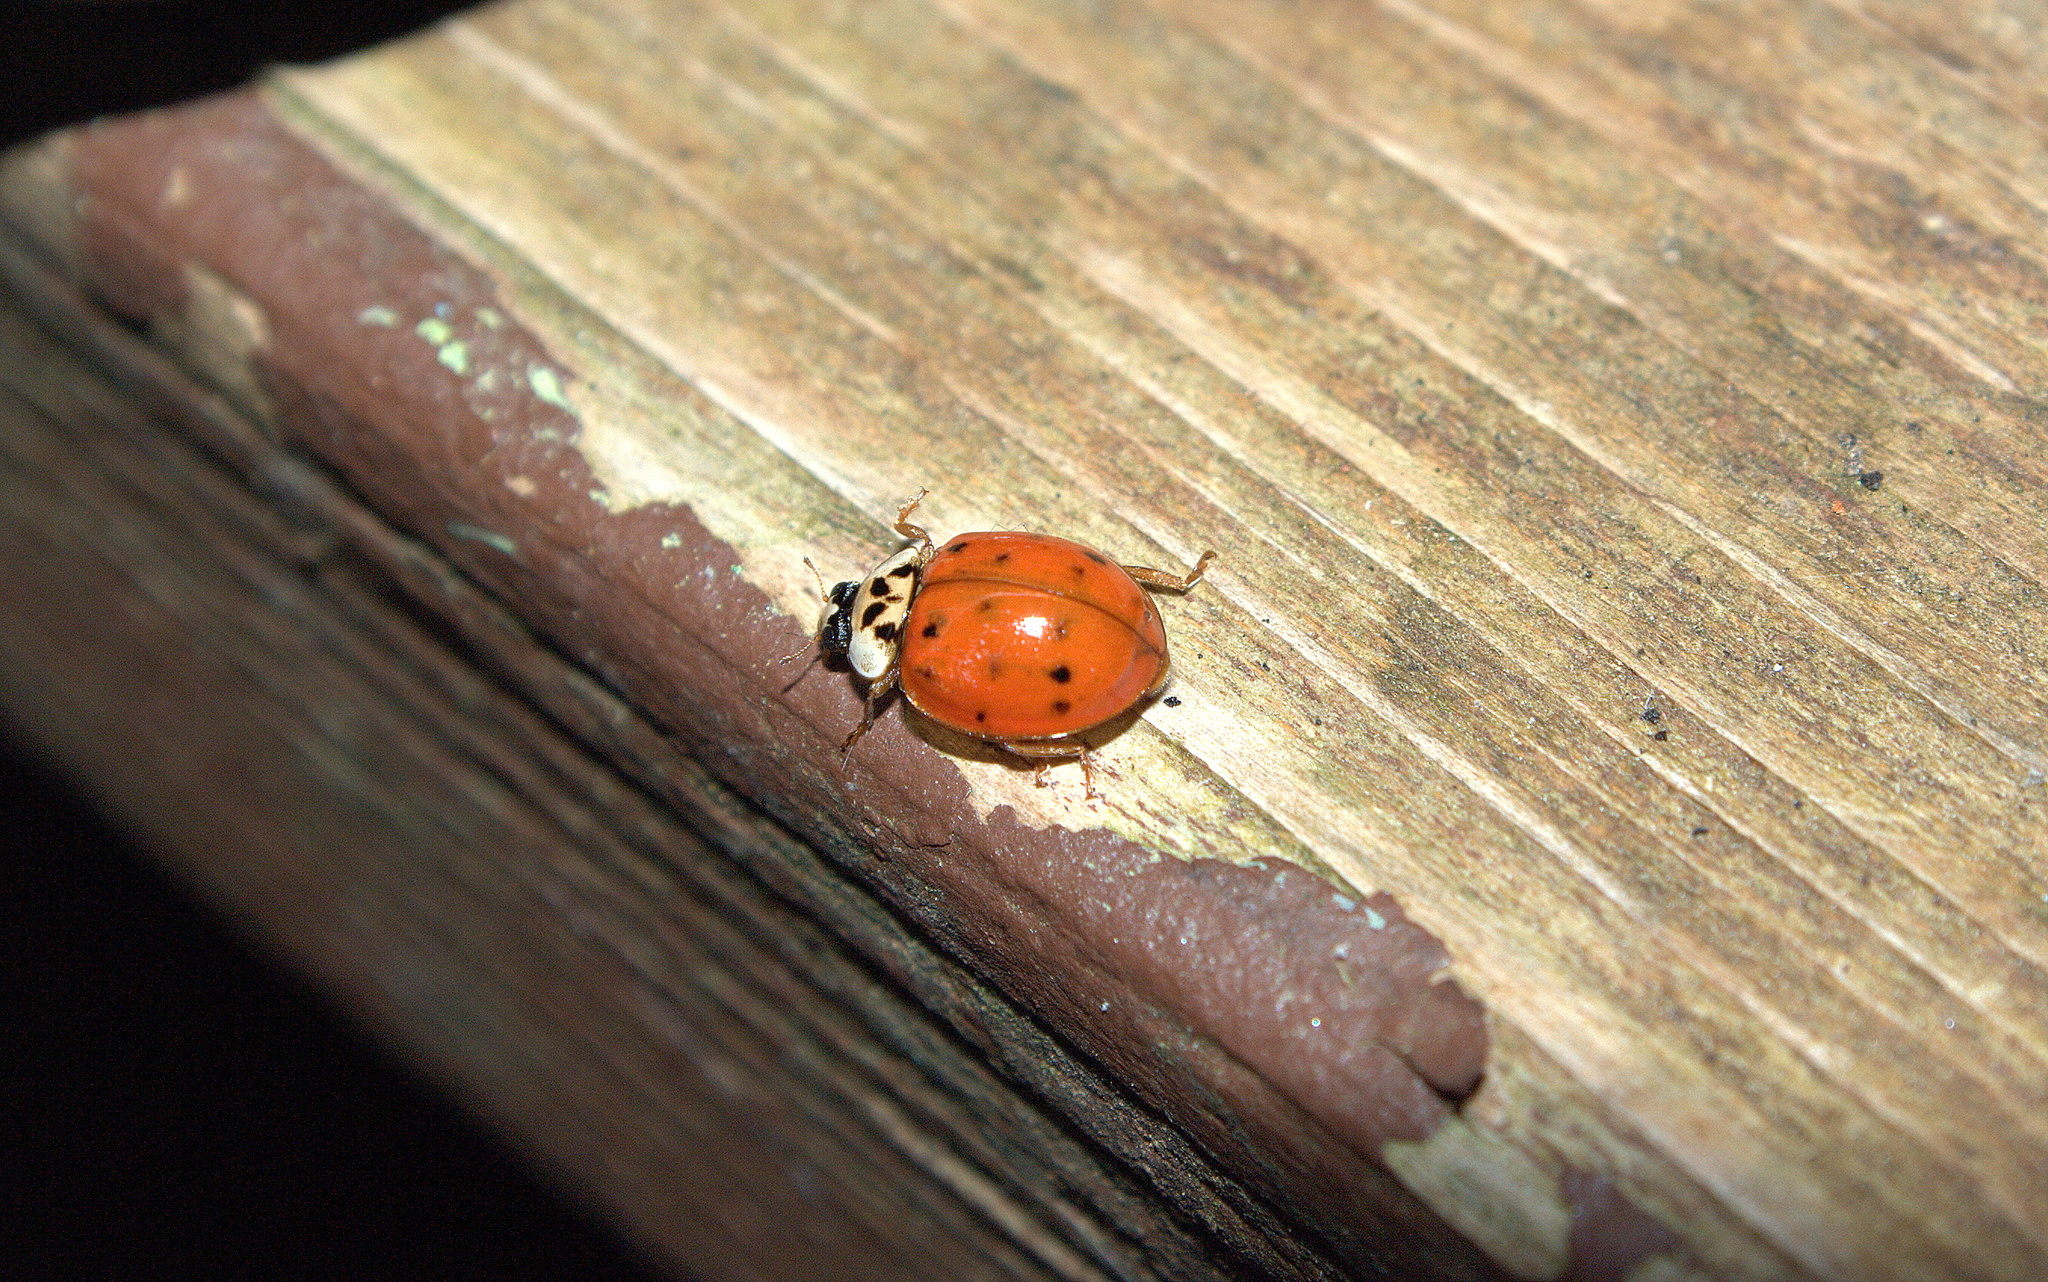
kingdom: Animalia
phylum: Arthropoda
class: Insecta
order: Coleoptera
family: Coccinellidae
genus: Harmonia
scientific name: Harmonia axyridis
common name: Harlequin ladybird
